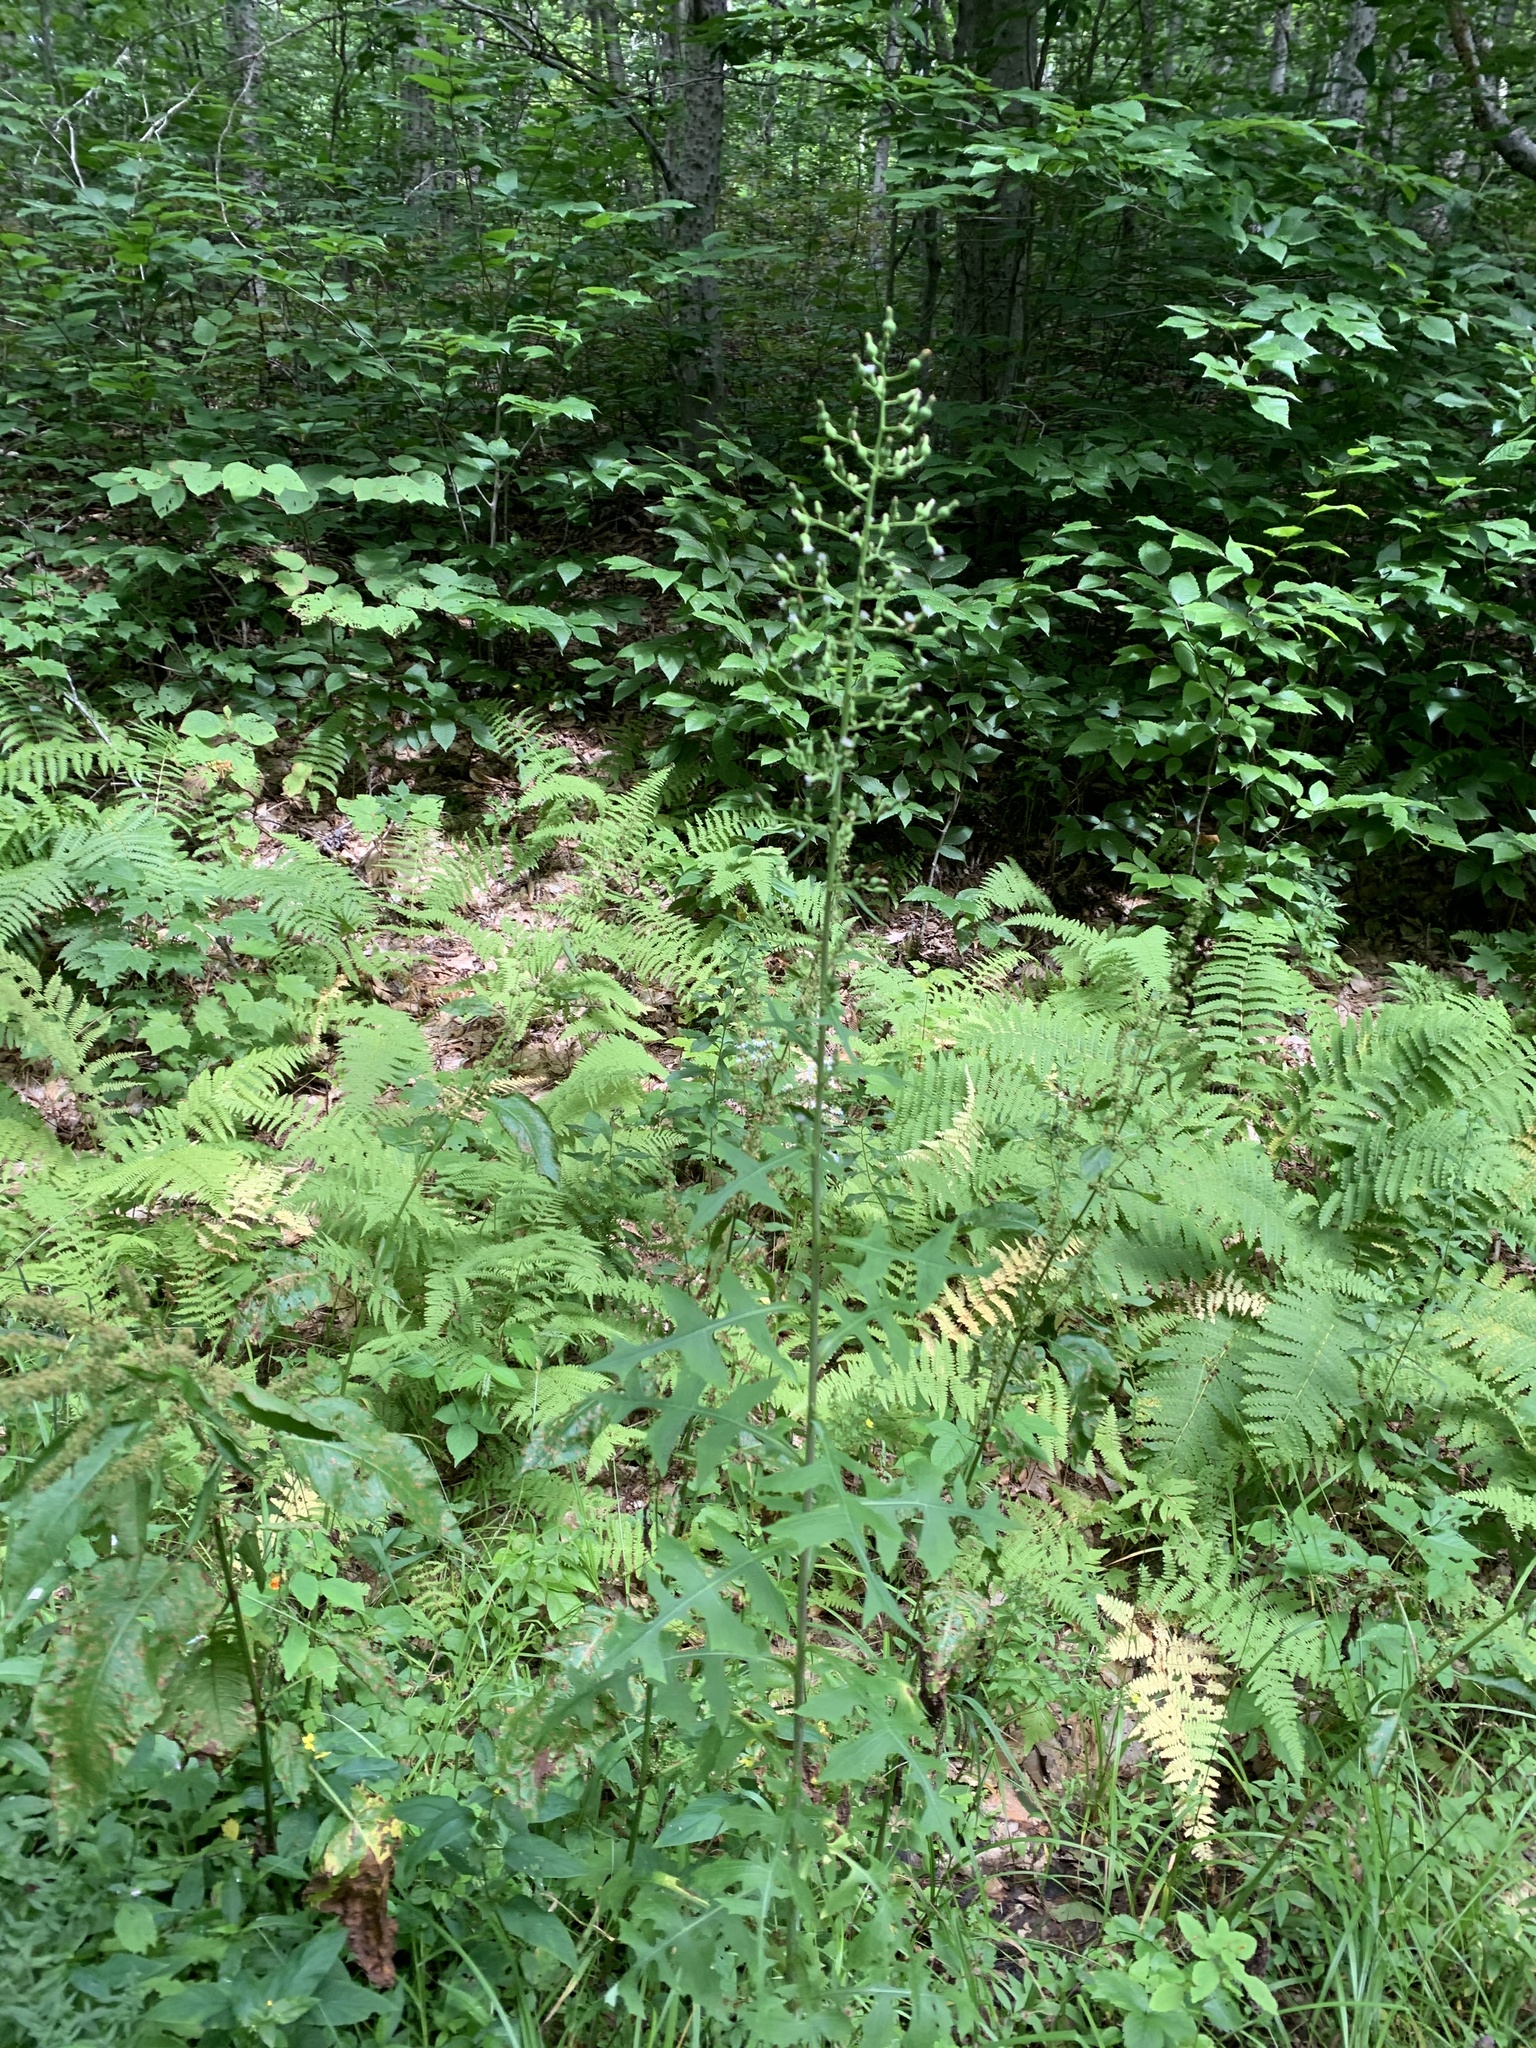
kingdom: Plantae
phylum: Tracheophyta
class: Magnoliopsida
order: Asterales
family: Asteraceae
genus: Lactuca
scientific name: Lactuca biennis
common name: Blue wood lettuce
